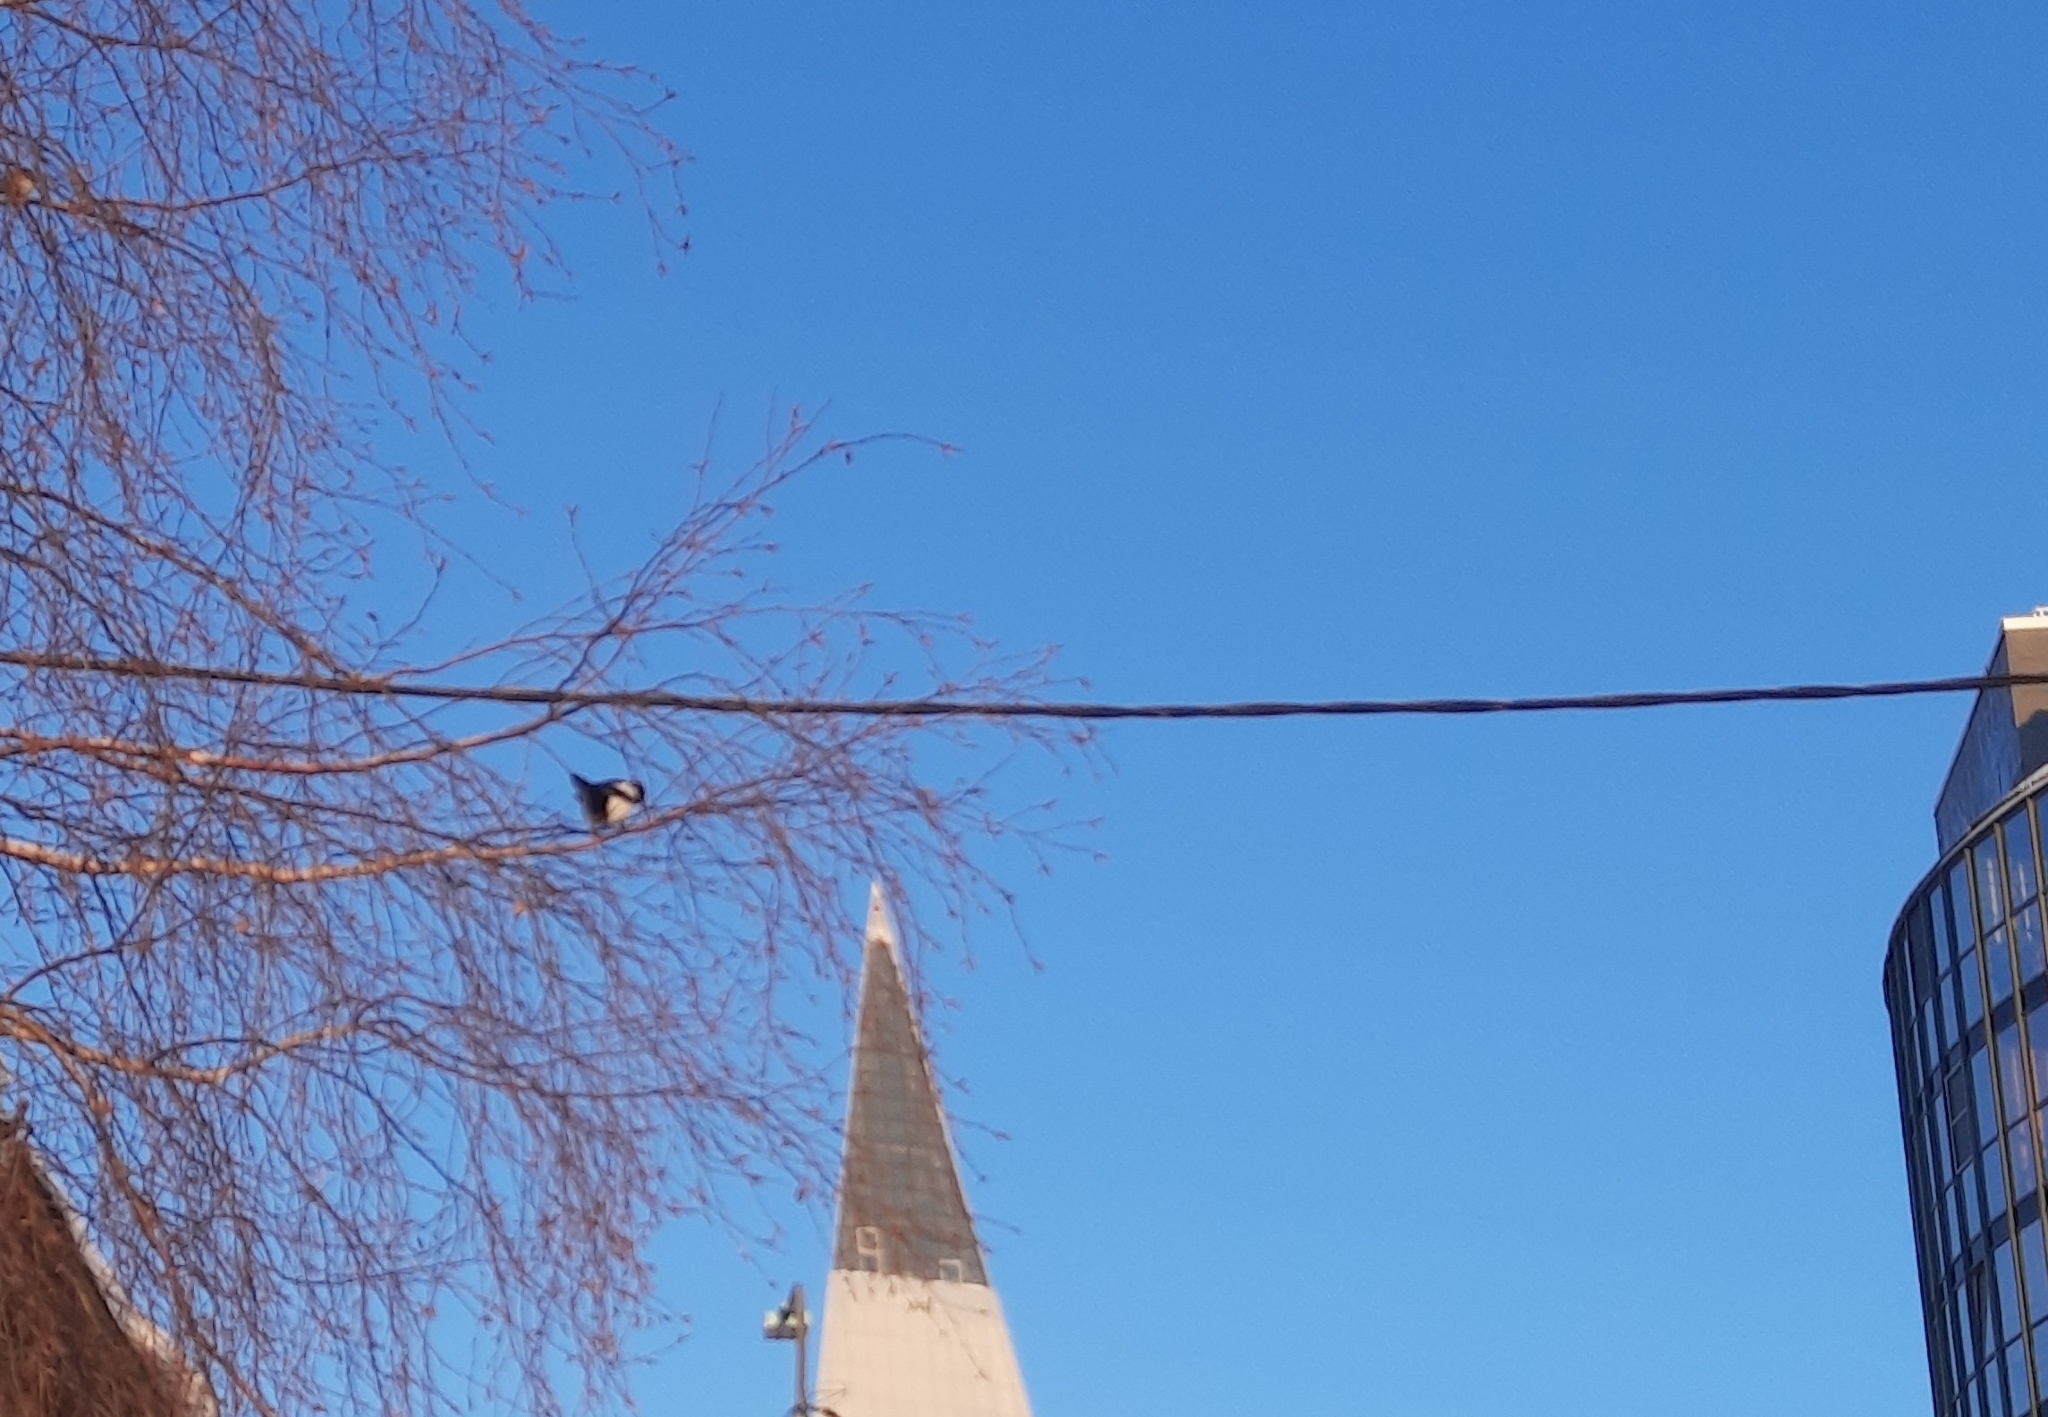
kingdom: Animalia
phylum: Chordata
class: Aves
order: Passeriformes
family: Corvidae
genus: Pica
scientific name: Pica pica
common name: Eurasian magpie
